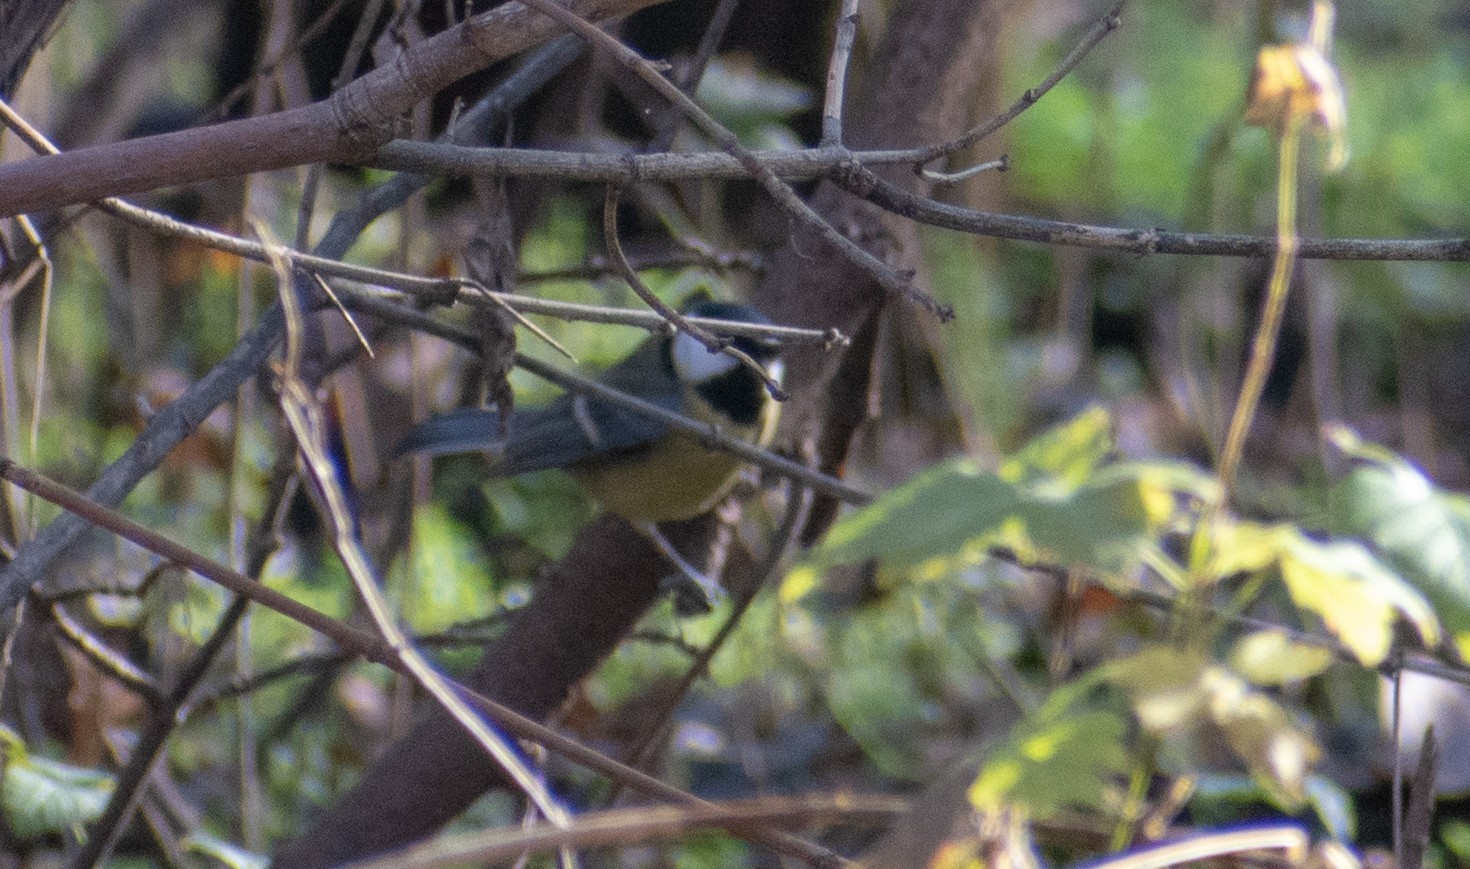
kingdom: Animalia
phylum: Chordata
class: Aves
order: Passeriformes
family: Paridae
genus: Parus
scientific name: Parus major
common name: Great tit
